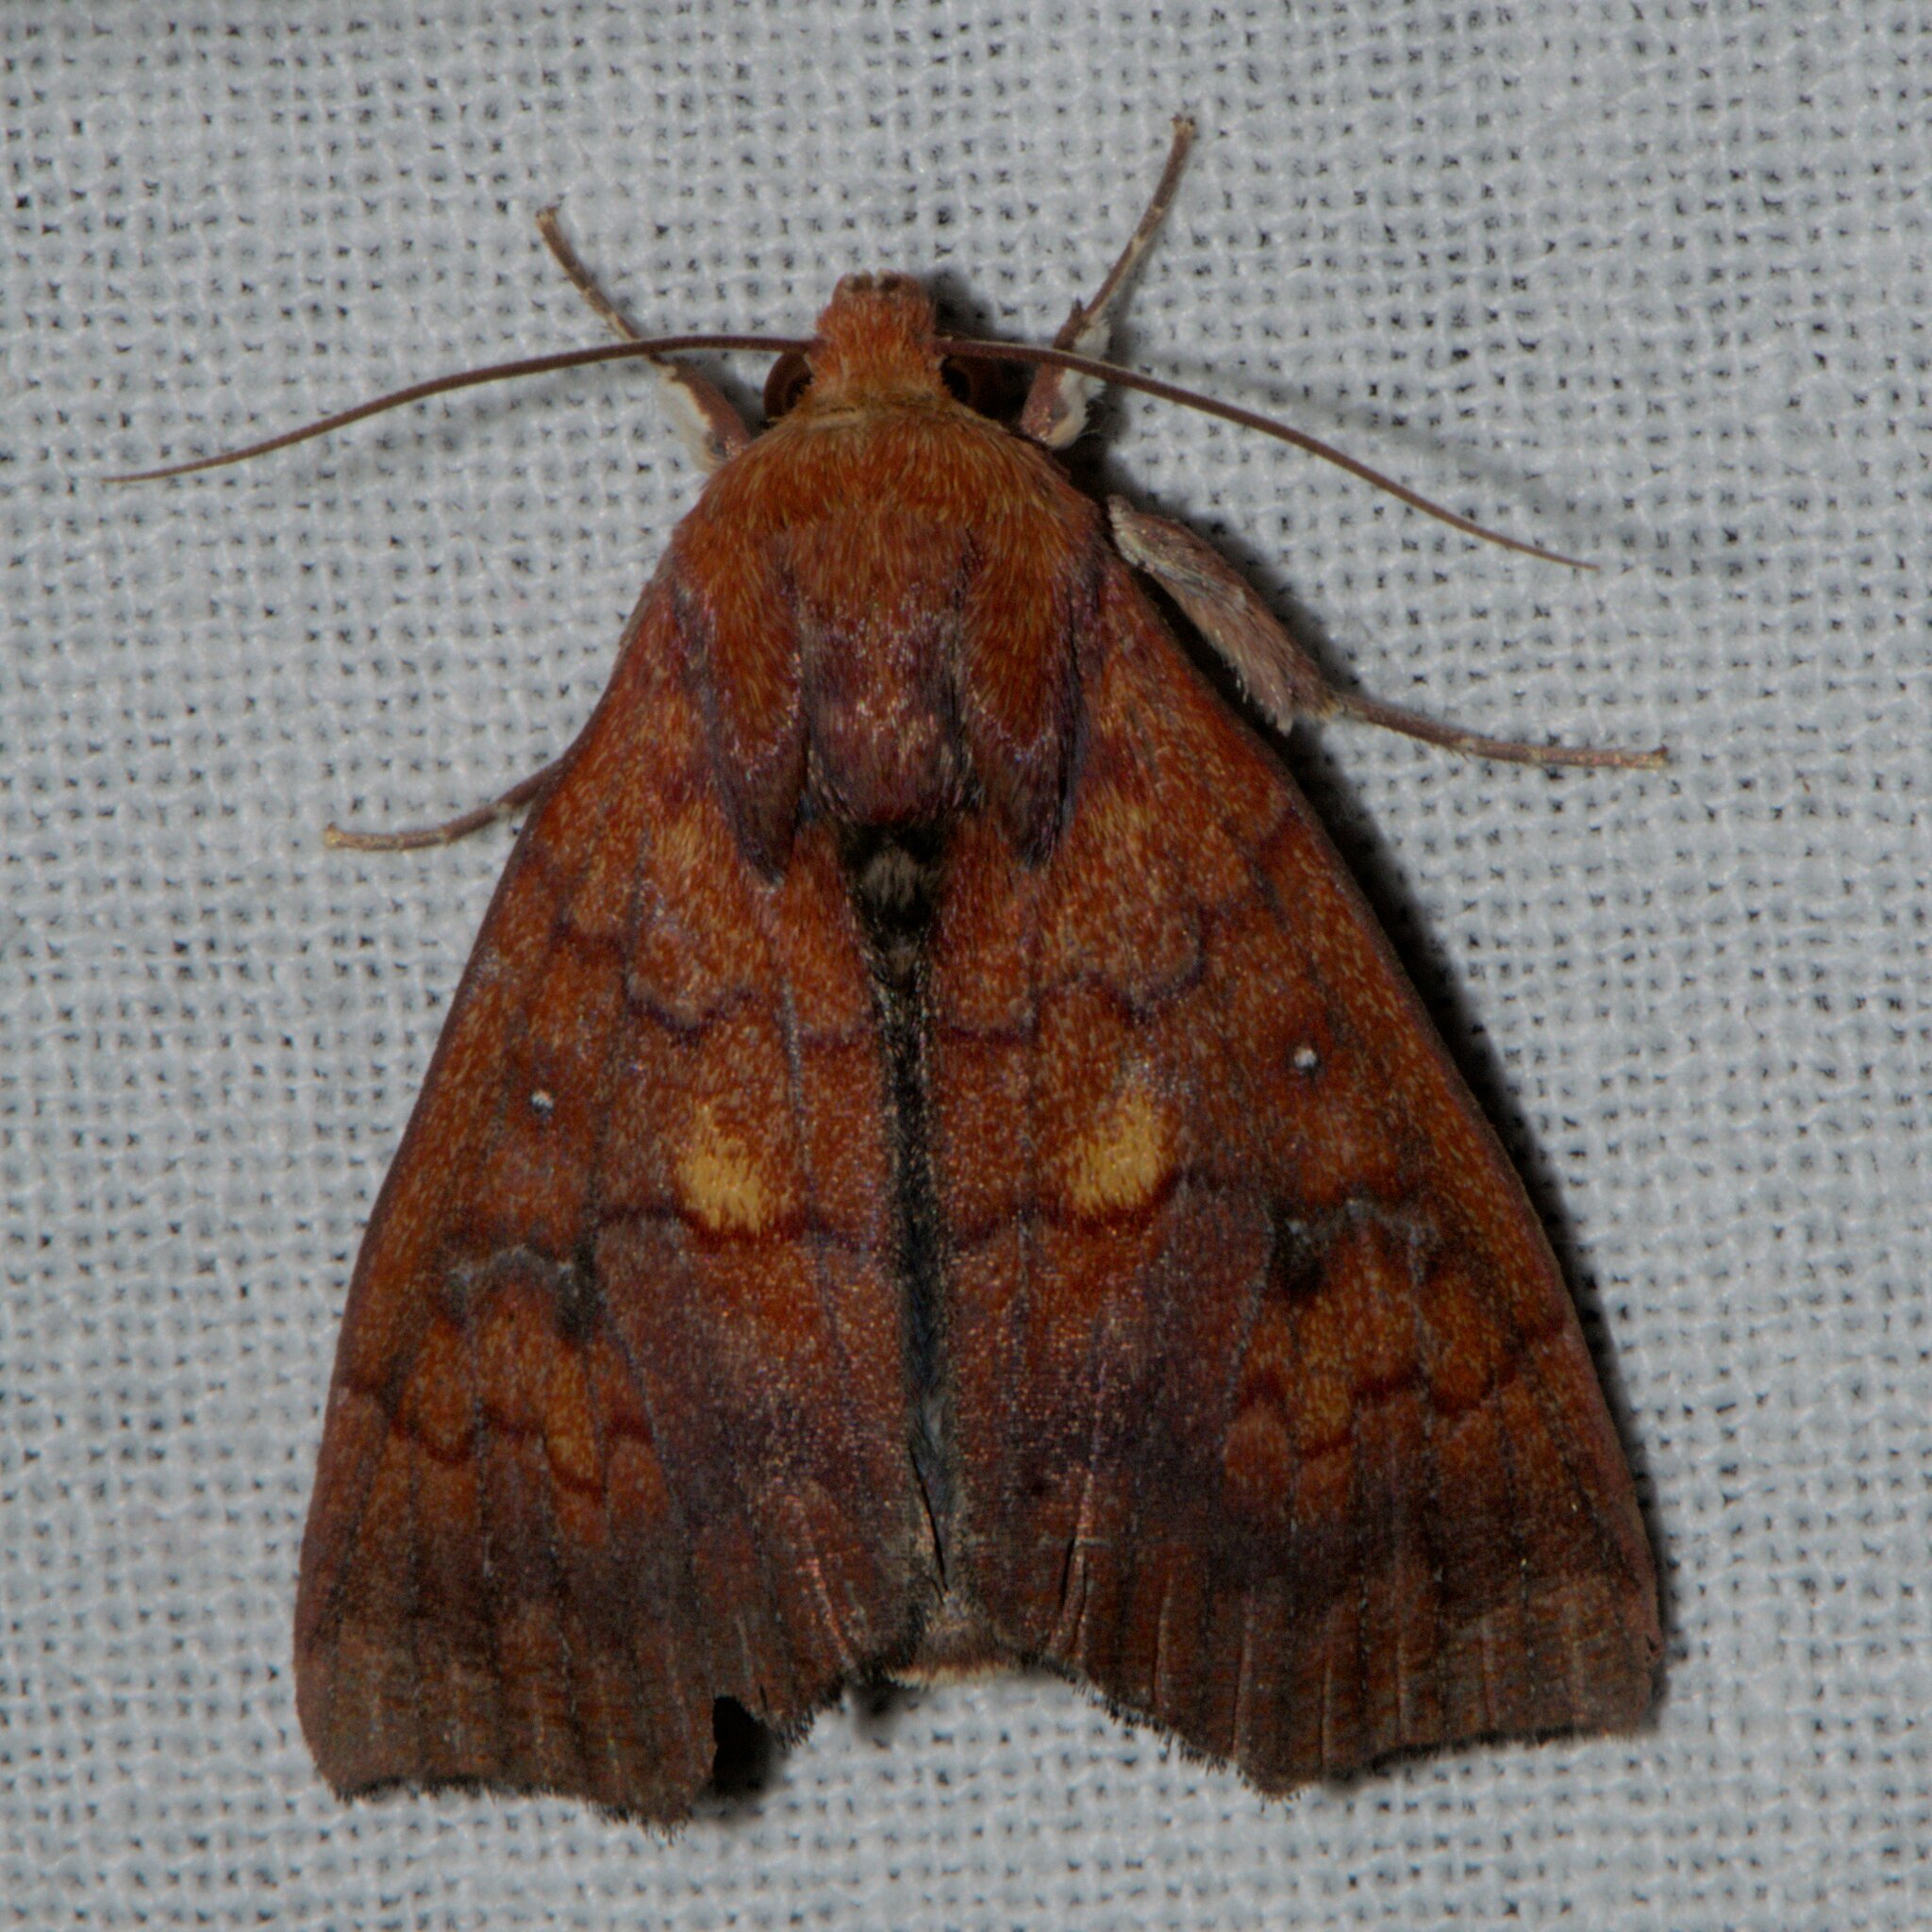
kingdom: Animalia
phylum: Arthropoda
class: Insecta
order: Lepidoptera
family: Erebidae
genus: Anomis
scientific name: Anomis fulvida
